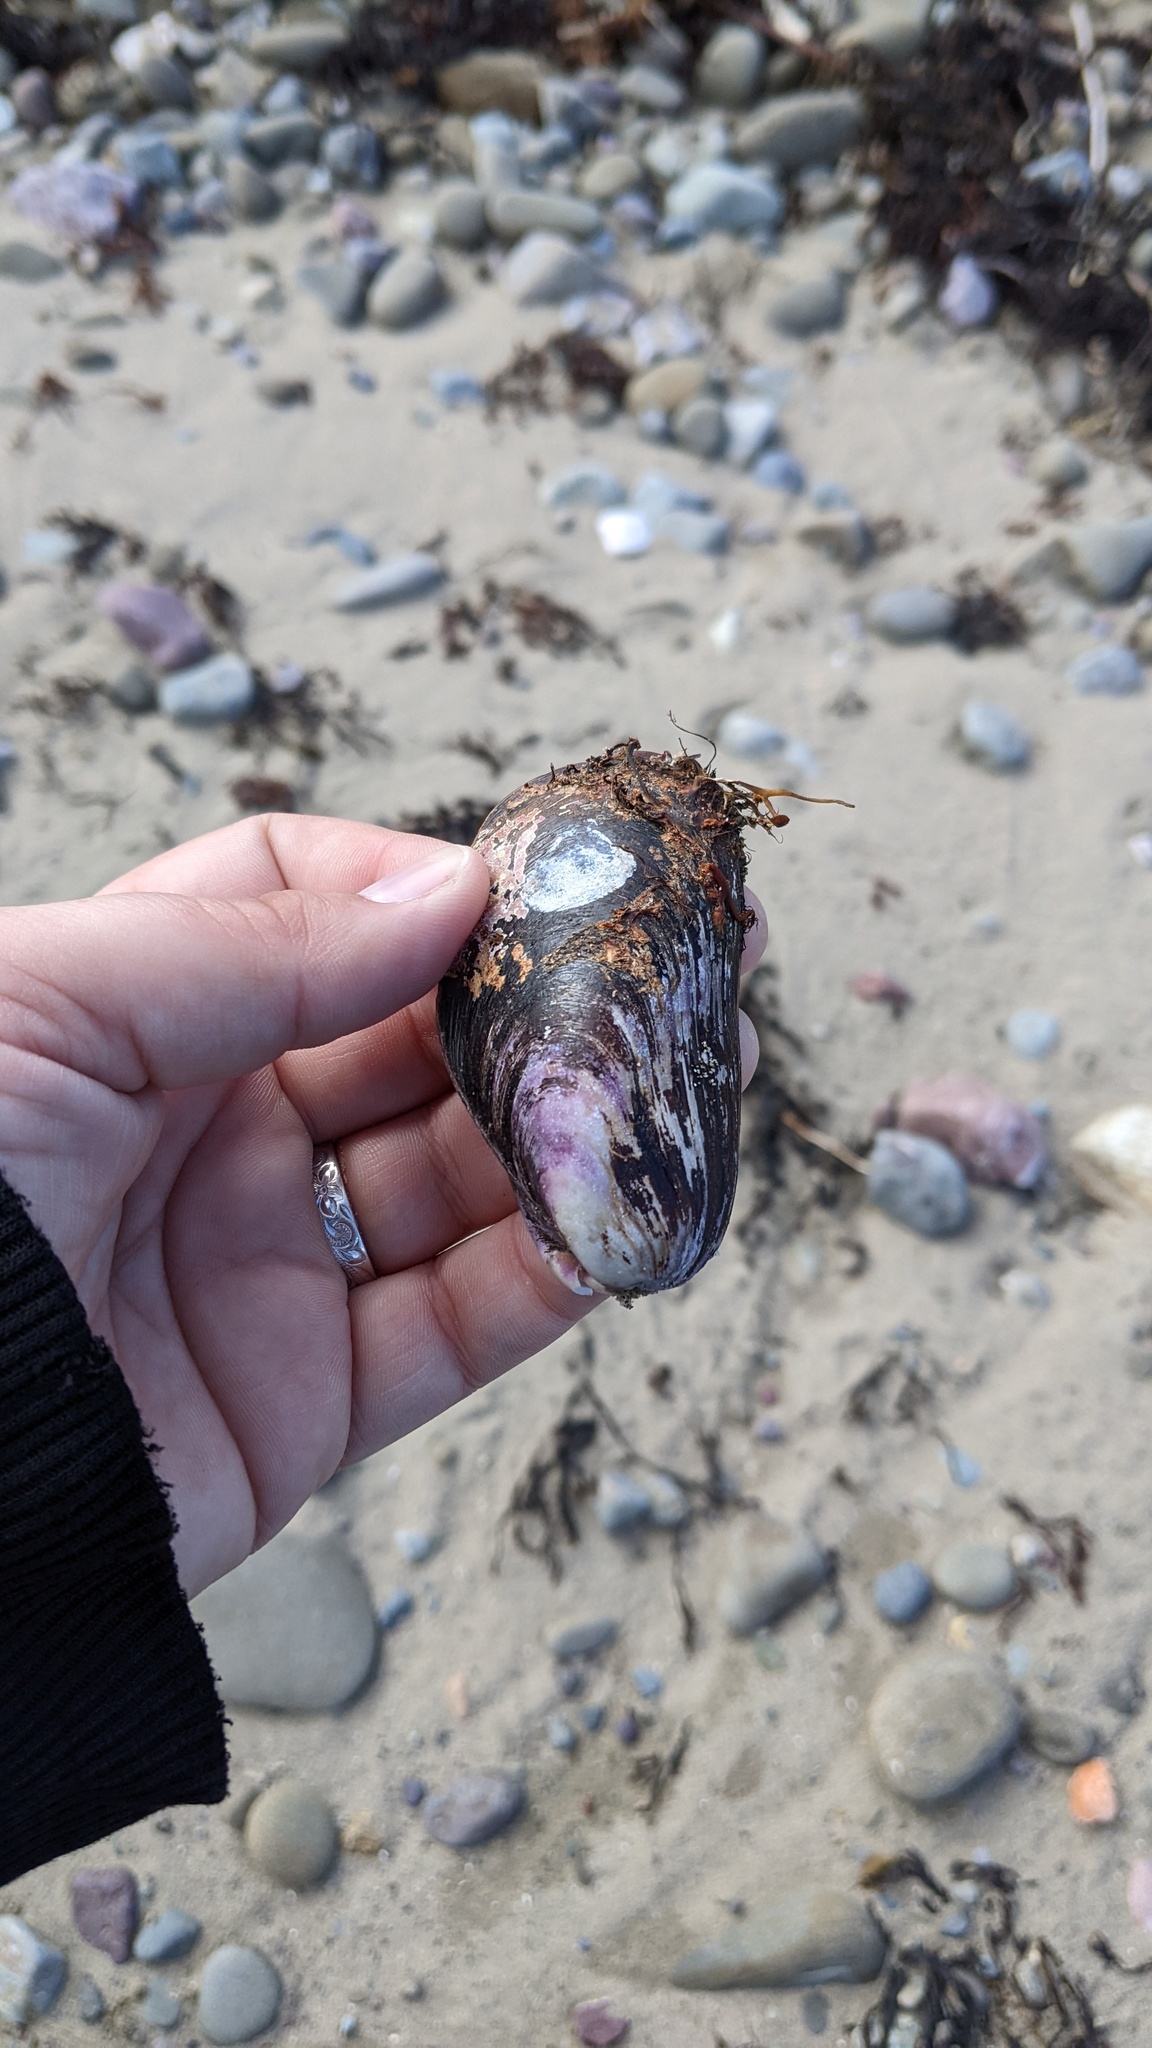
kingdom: Animalia
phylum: Mollusca
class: Bivalvia
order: Mytilida
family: Mytilidae
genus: Modiolus
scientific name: Modiolus modiolus
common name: Horse-mussel
